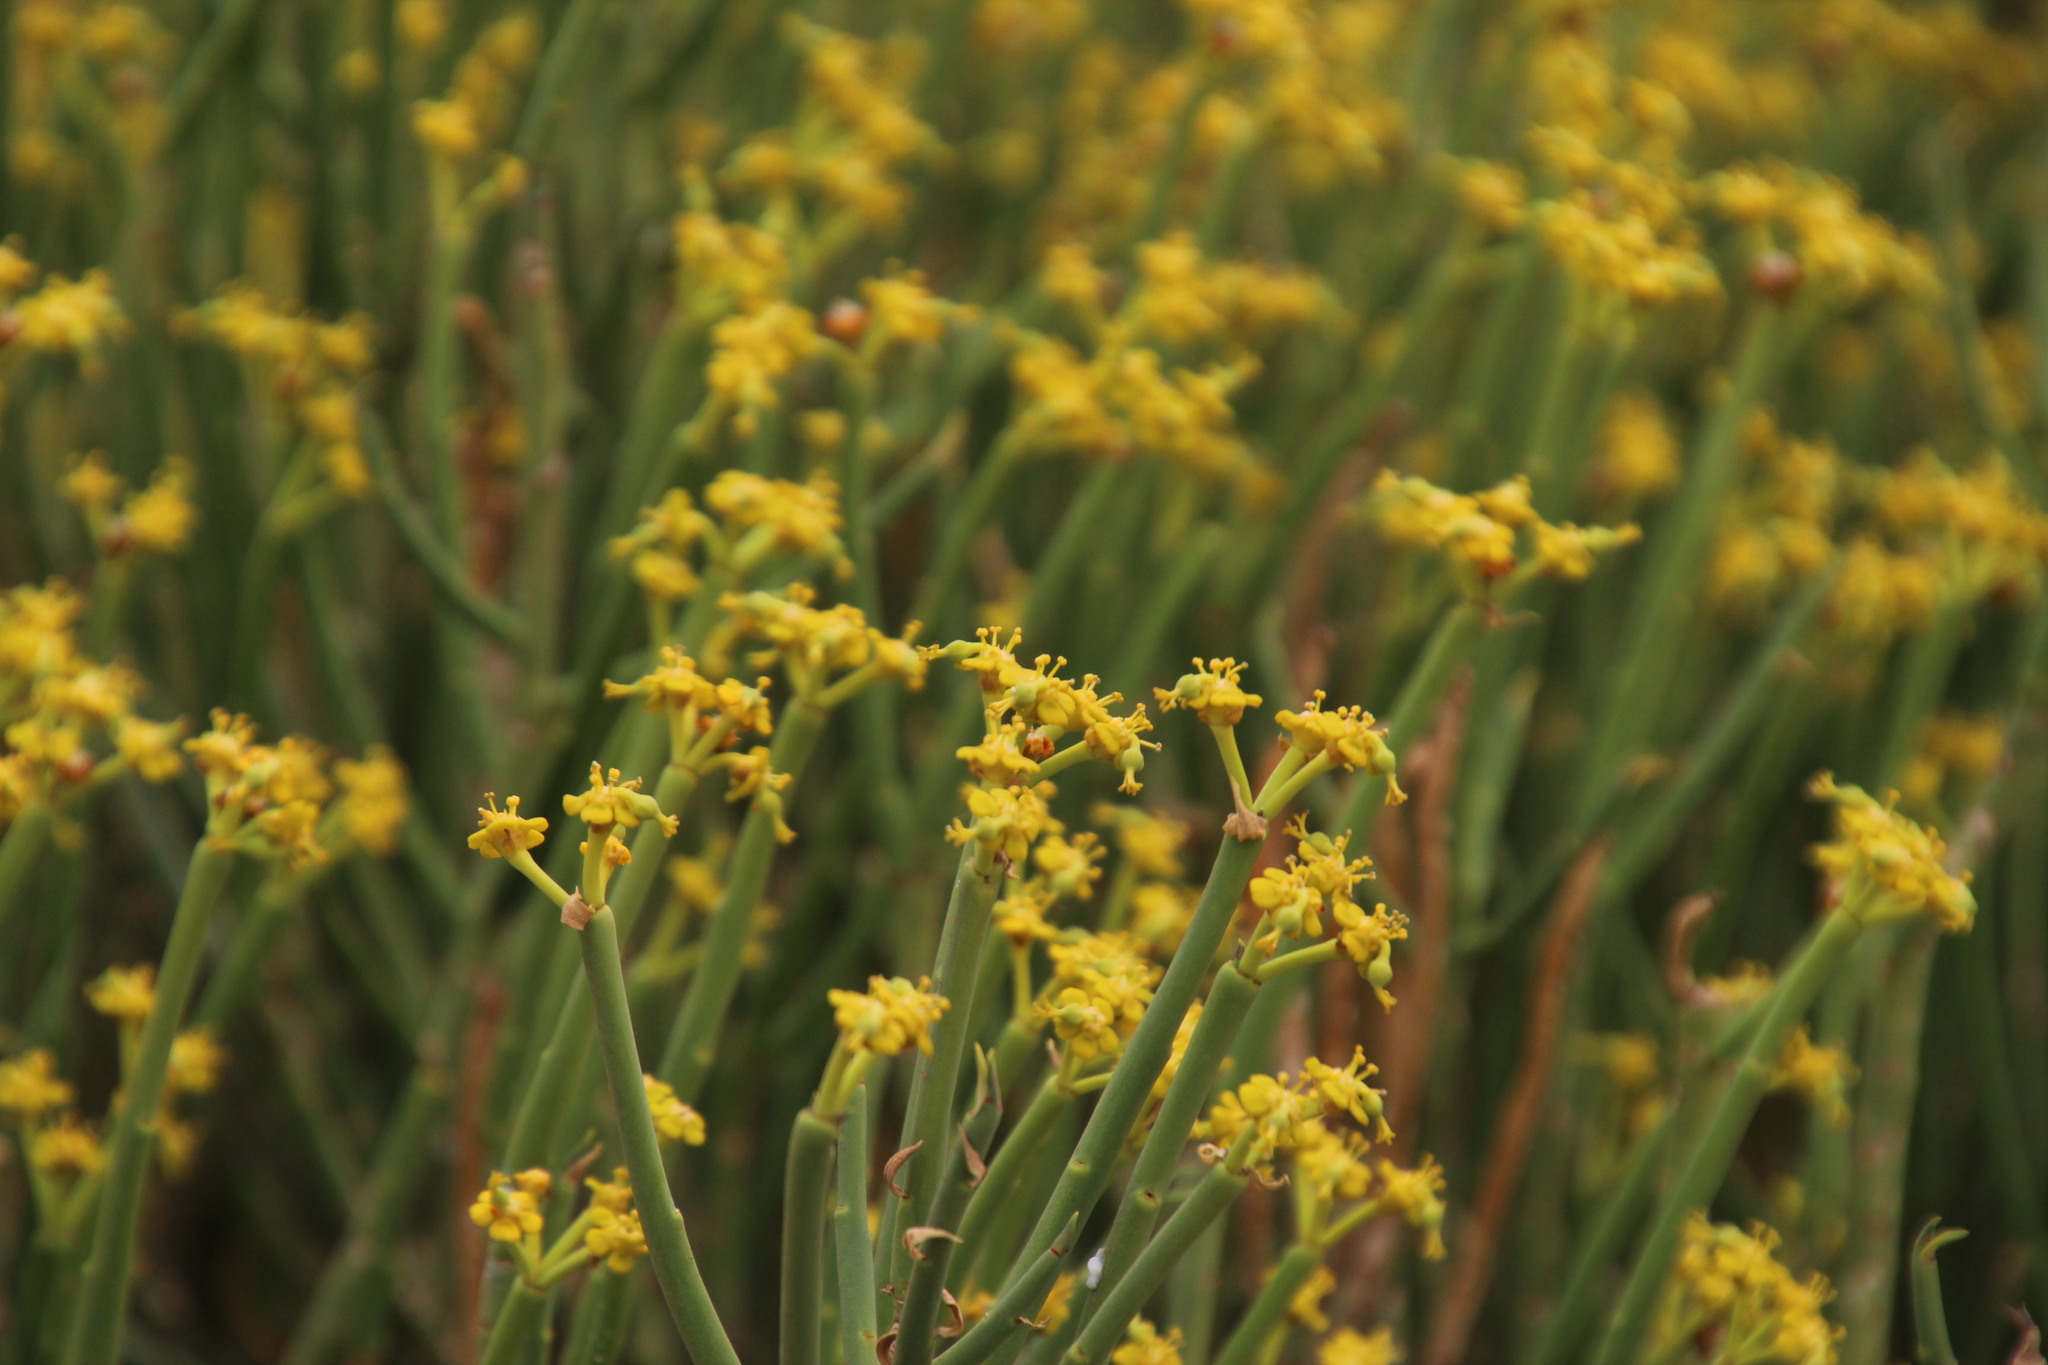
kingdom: Plantae
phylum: Tracheophyta
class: Magnoliopsida
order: Malpighiales
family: Euphorbiaceae
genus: Euphorbia
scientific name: Euphorbia mauritanica
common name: Jackal's-food
